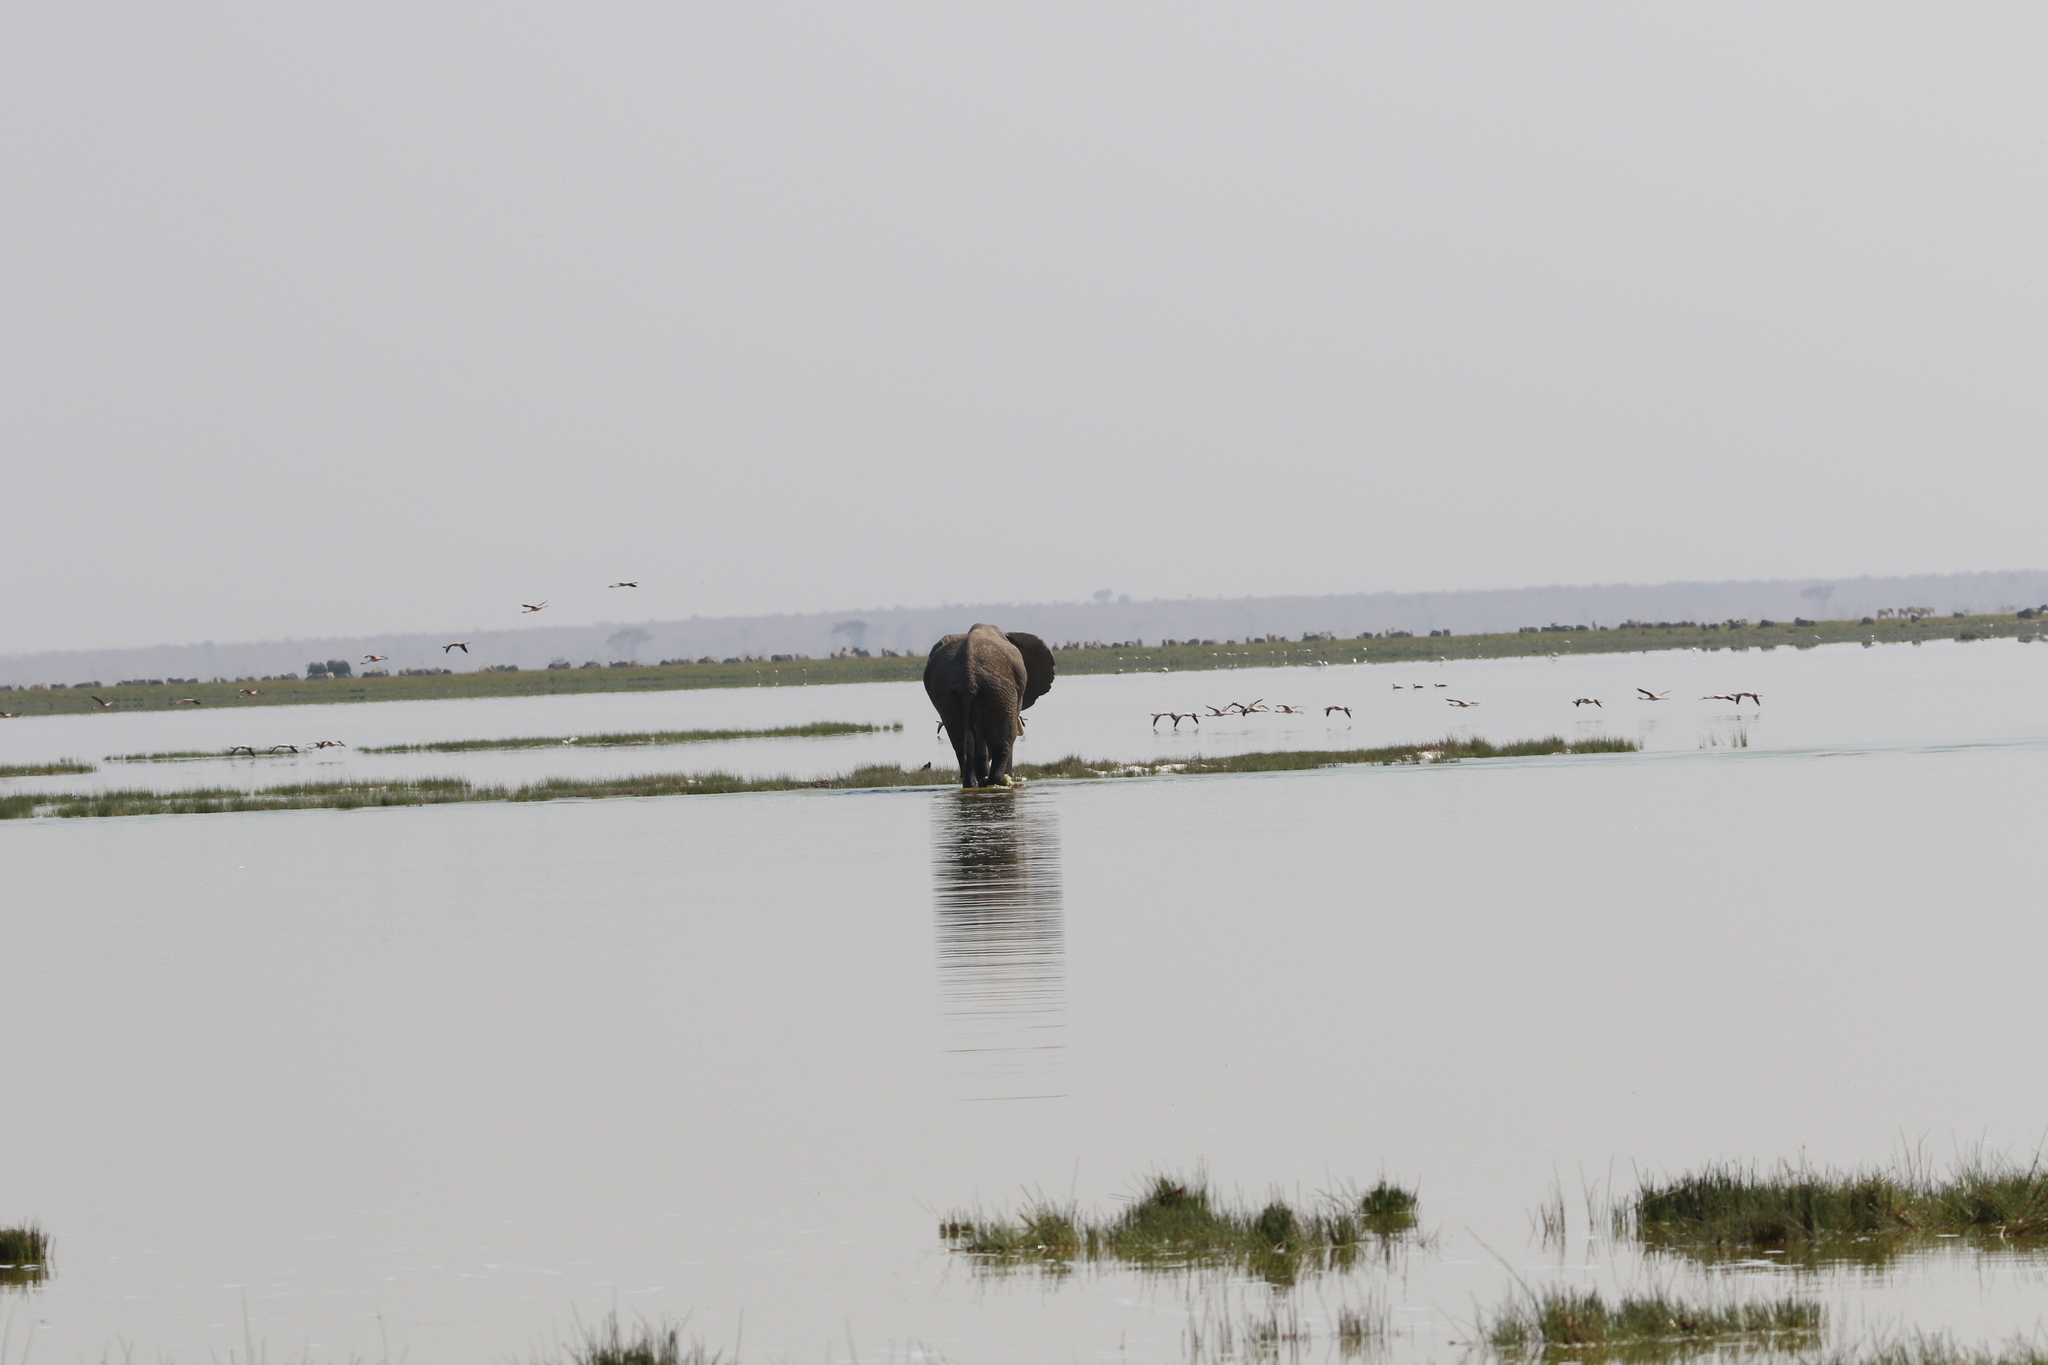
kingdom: Animalia
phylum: Chordata
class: Mammalia
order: Proboscidea
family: Elephantidae
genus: Loxodonta
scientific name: Loxodonta africana
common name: African elephant
